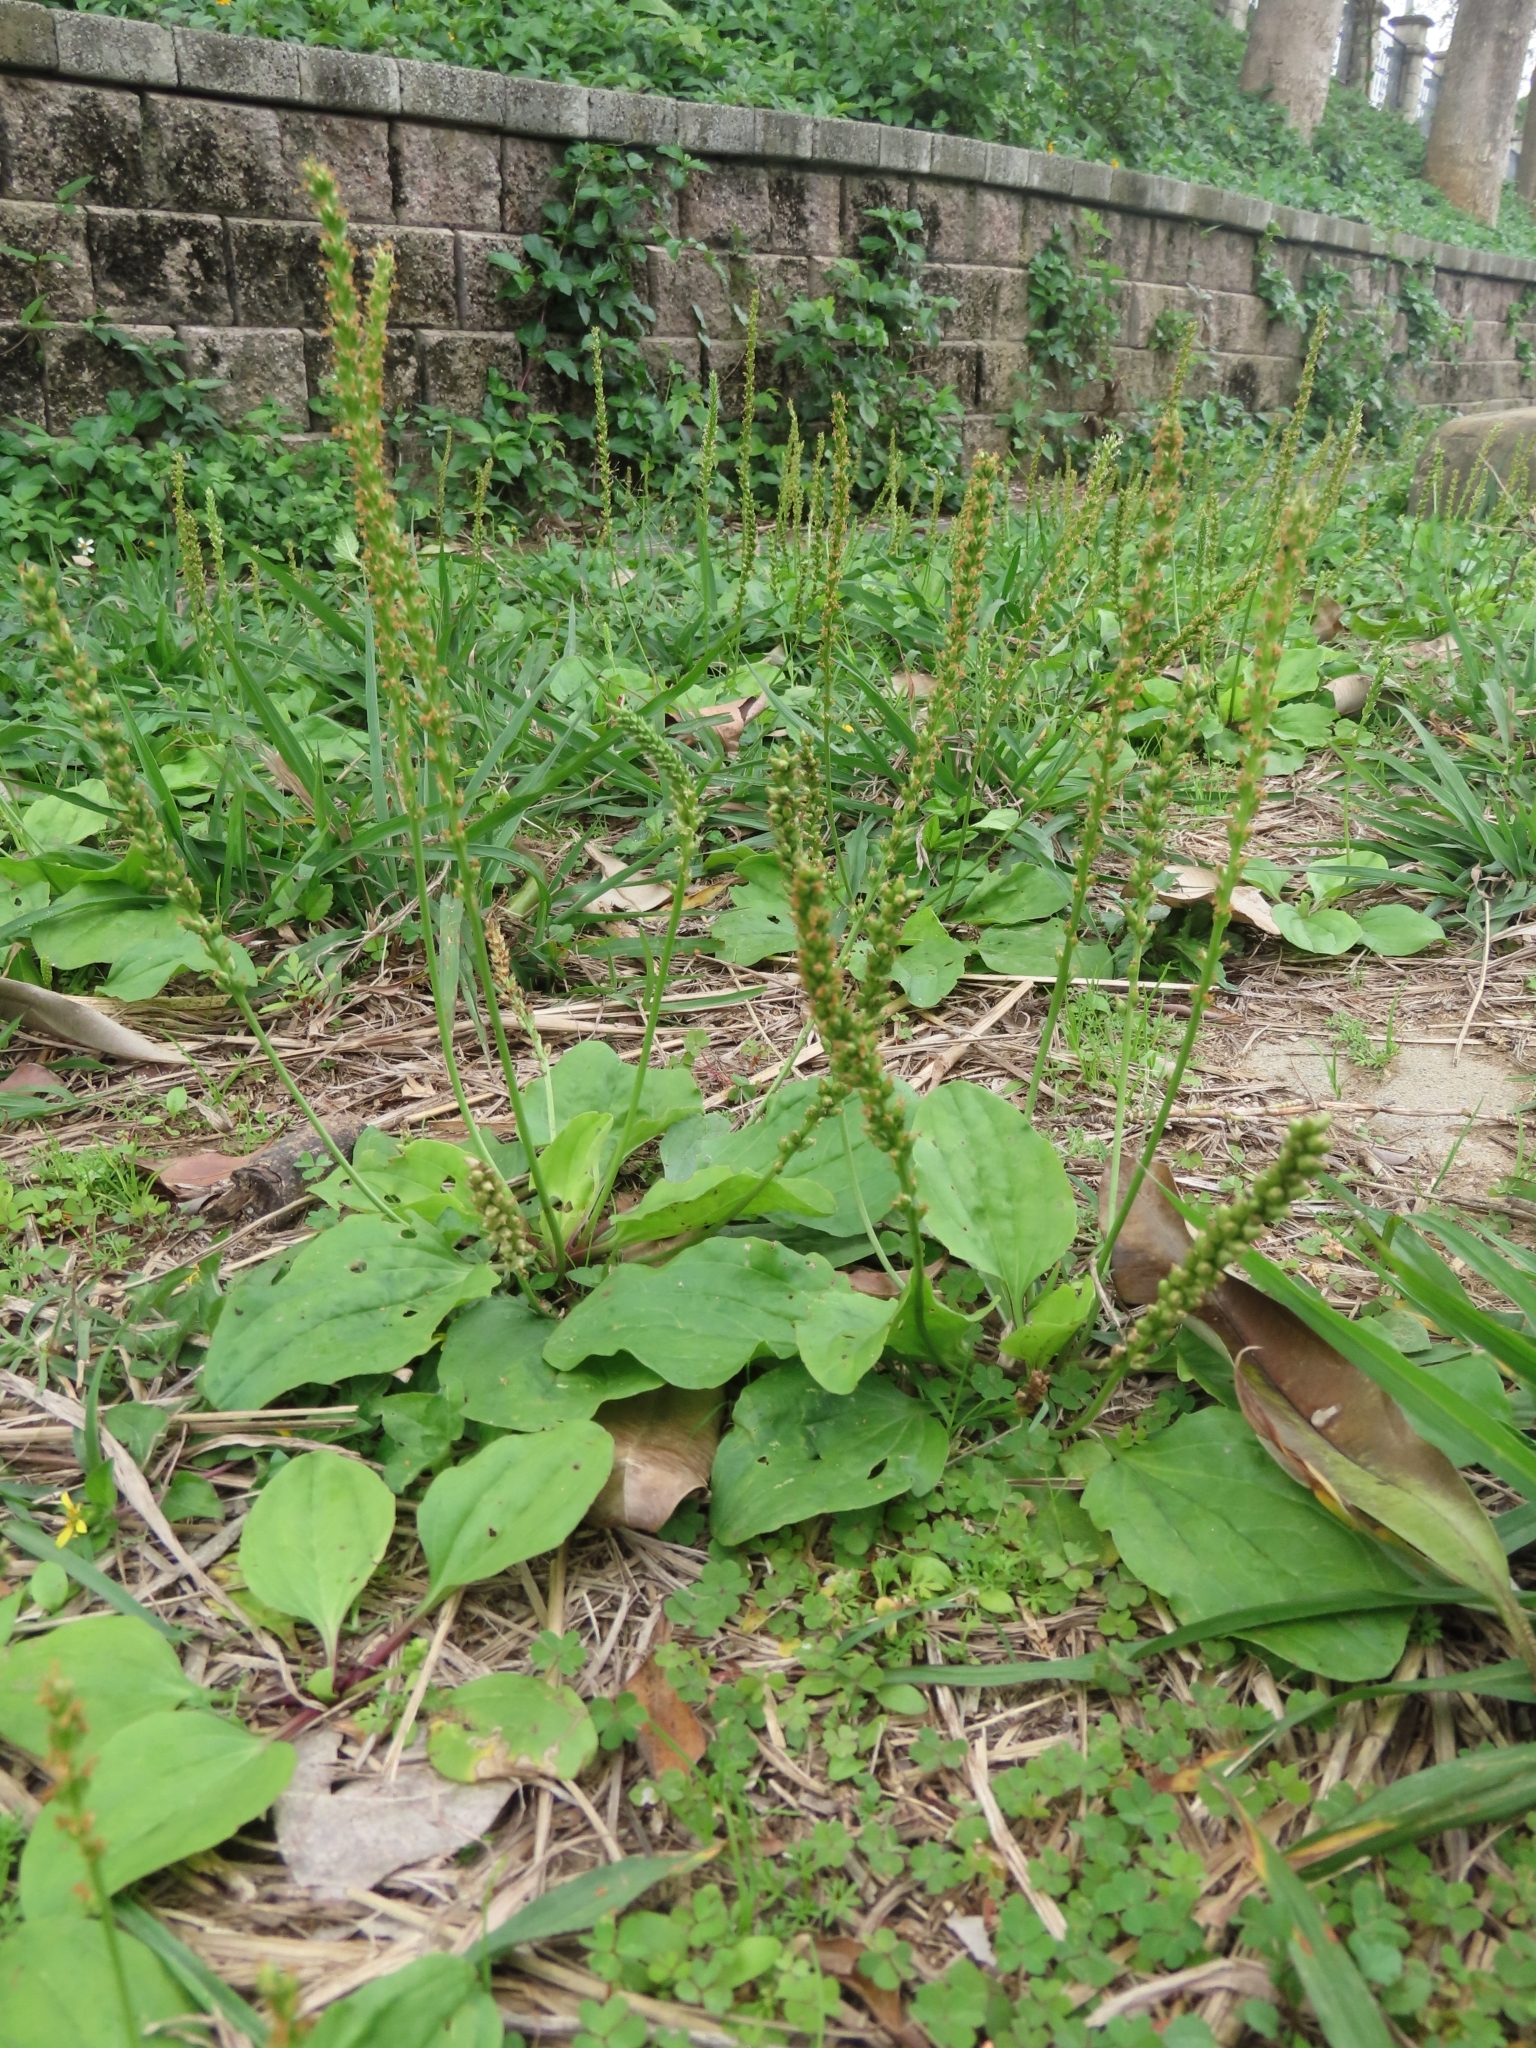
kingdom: Plantae
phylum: Tracheophyta
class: Magnoliopsida
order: Lamiales
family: Plantaginaceae
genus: Plantago
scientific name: Plantago asiatica
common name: Psyllium
